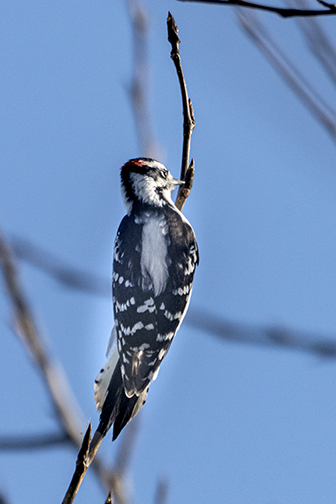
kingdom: Animalia
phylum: Chordata
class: Aves
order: Piciformes
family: Picidae
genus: Dryobates
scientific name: Dryobates pubescens
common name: Downy woodpecker
